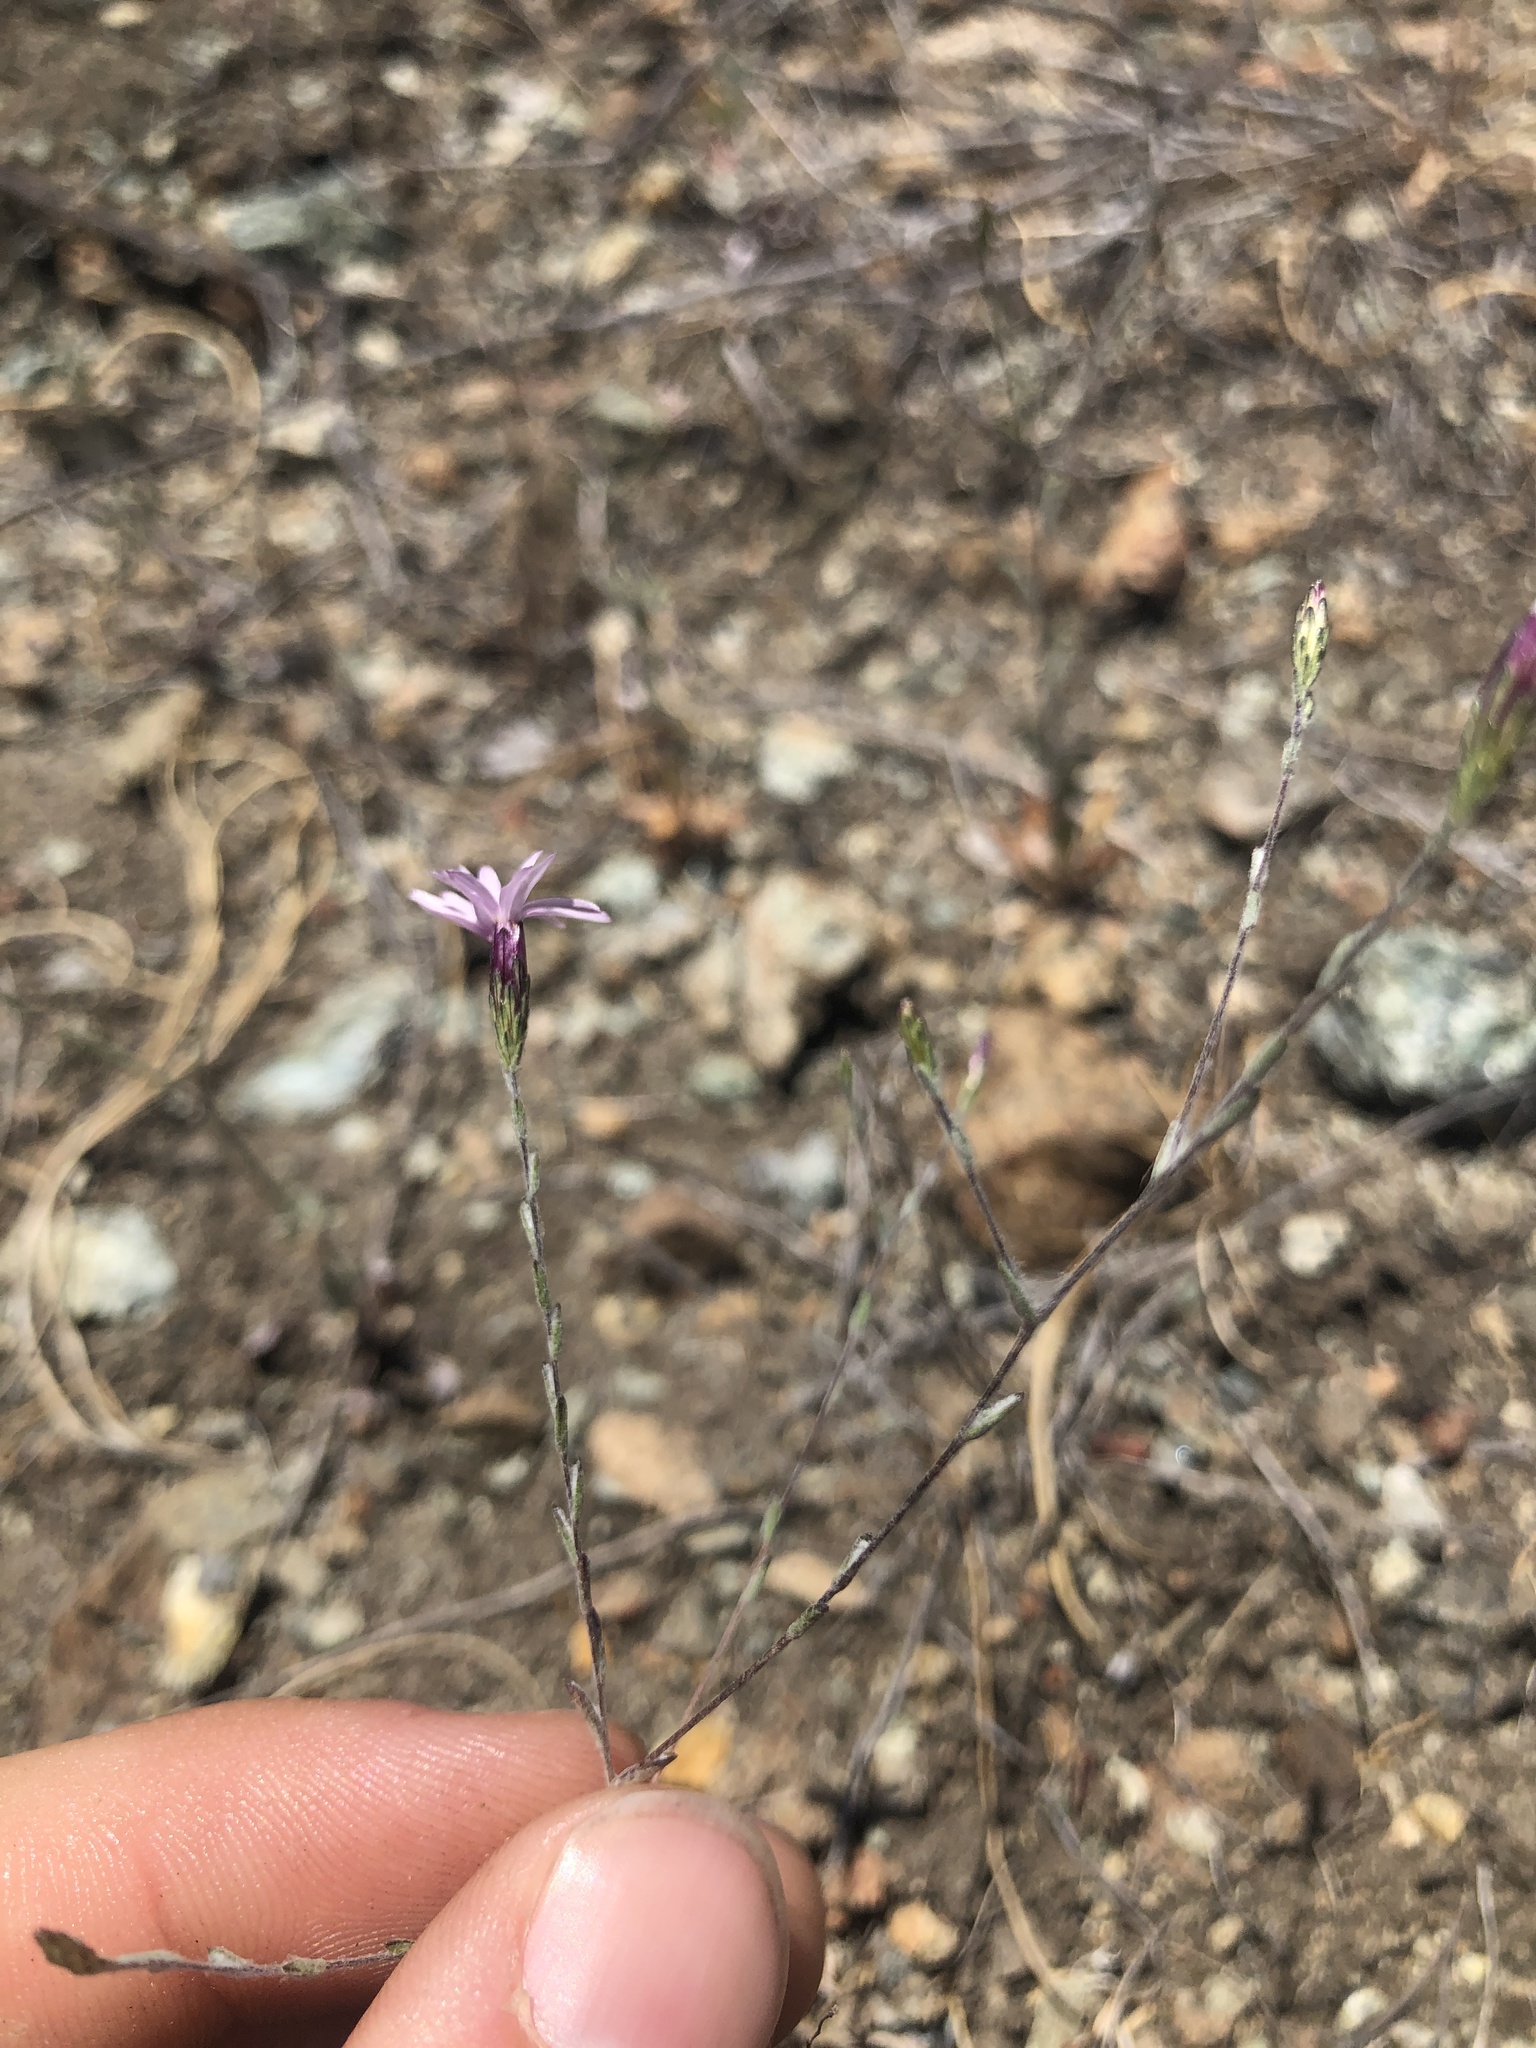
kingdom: Plantae
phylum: Tracheophyta
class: Magnoliopsida
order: Asterales
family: Asteraceae
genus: Lessingia
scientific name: Lessingia micradenia
